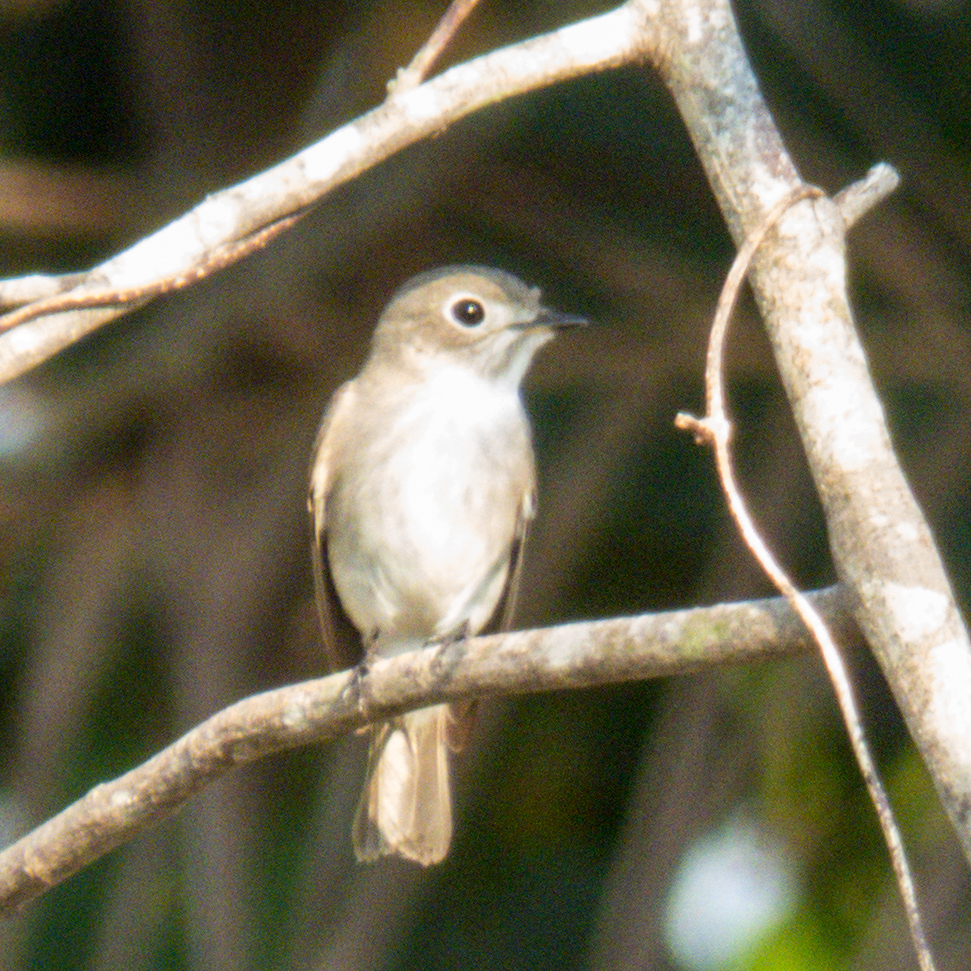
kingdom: Animalia
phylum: Chordata
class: Aves
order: Passeriformes
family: Muscicapidae
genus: Muscicapa
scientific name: Muscicapa latirostris
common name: Asian brown flycatcher
